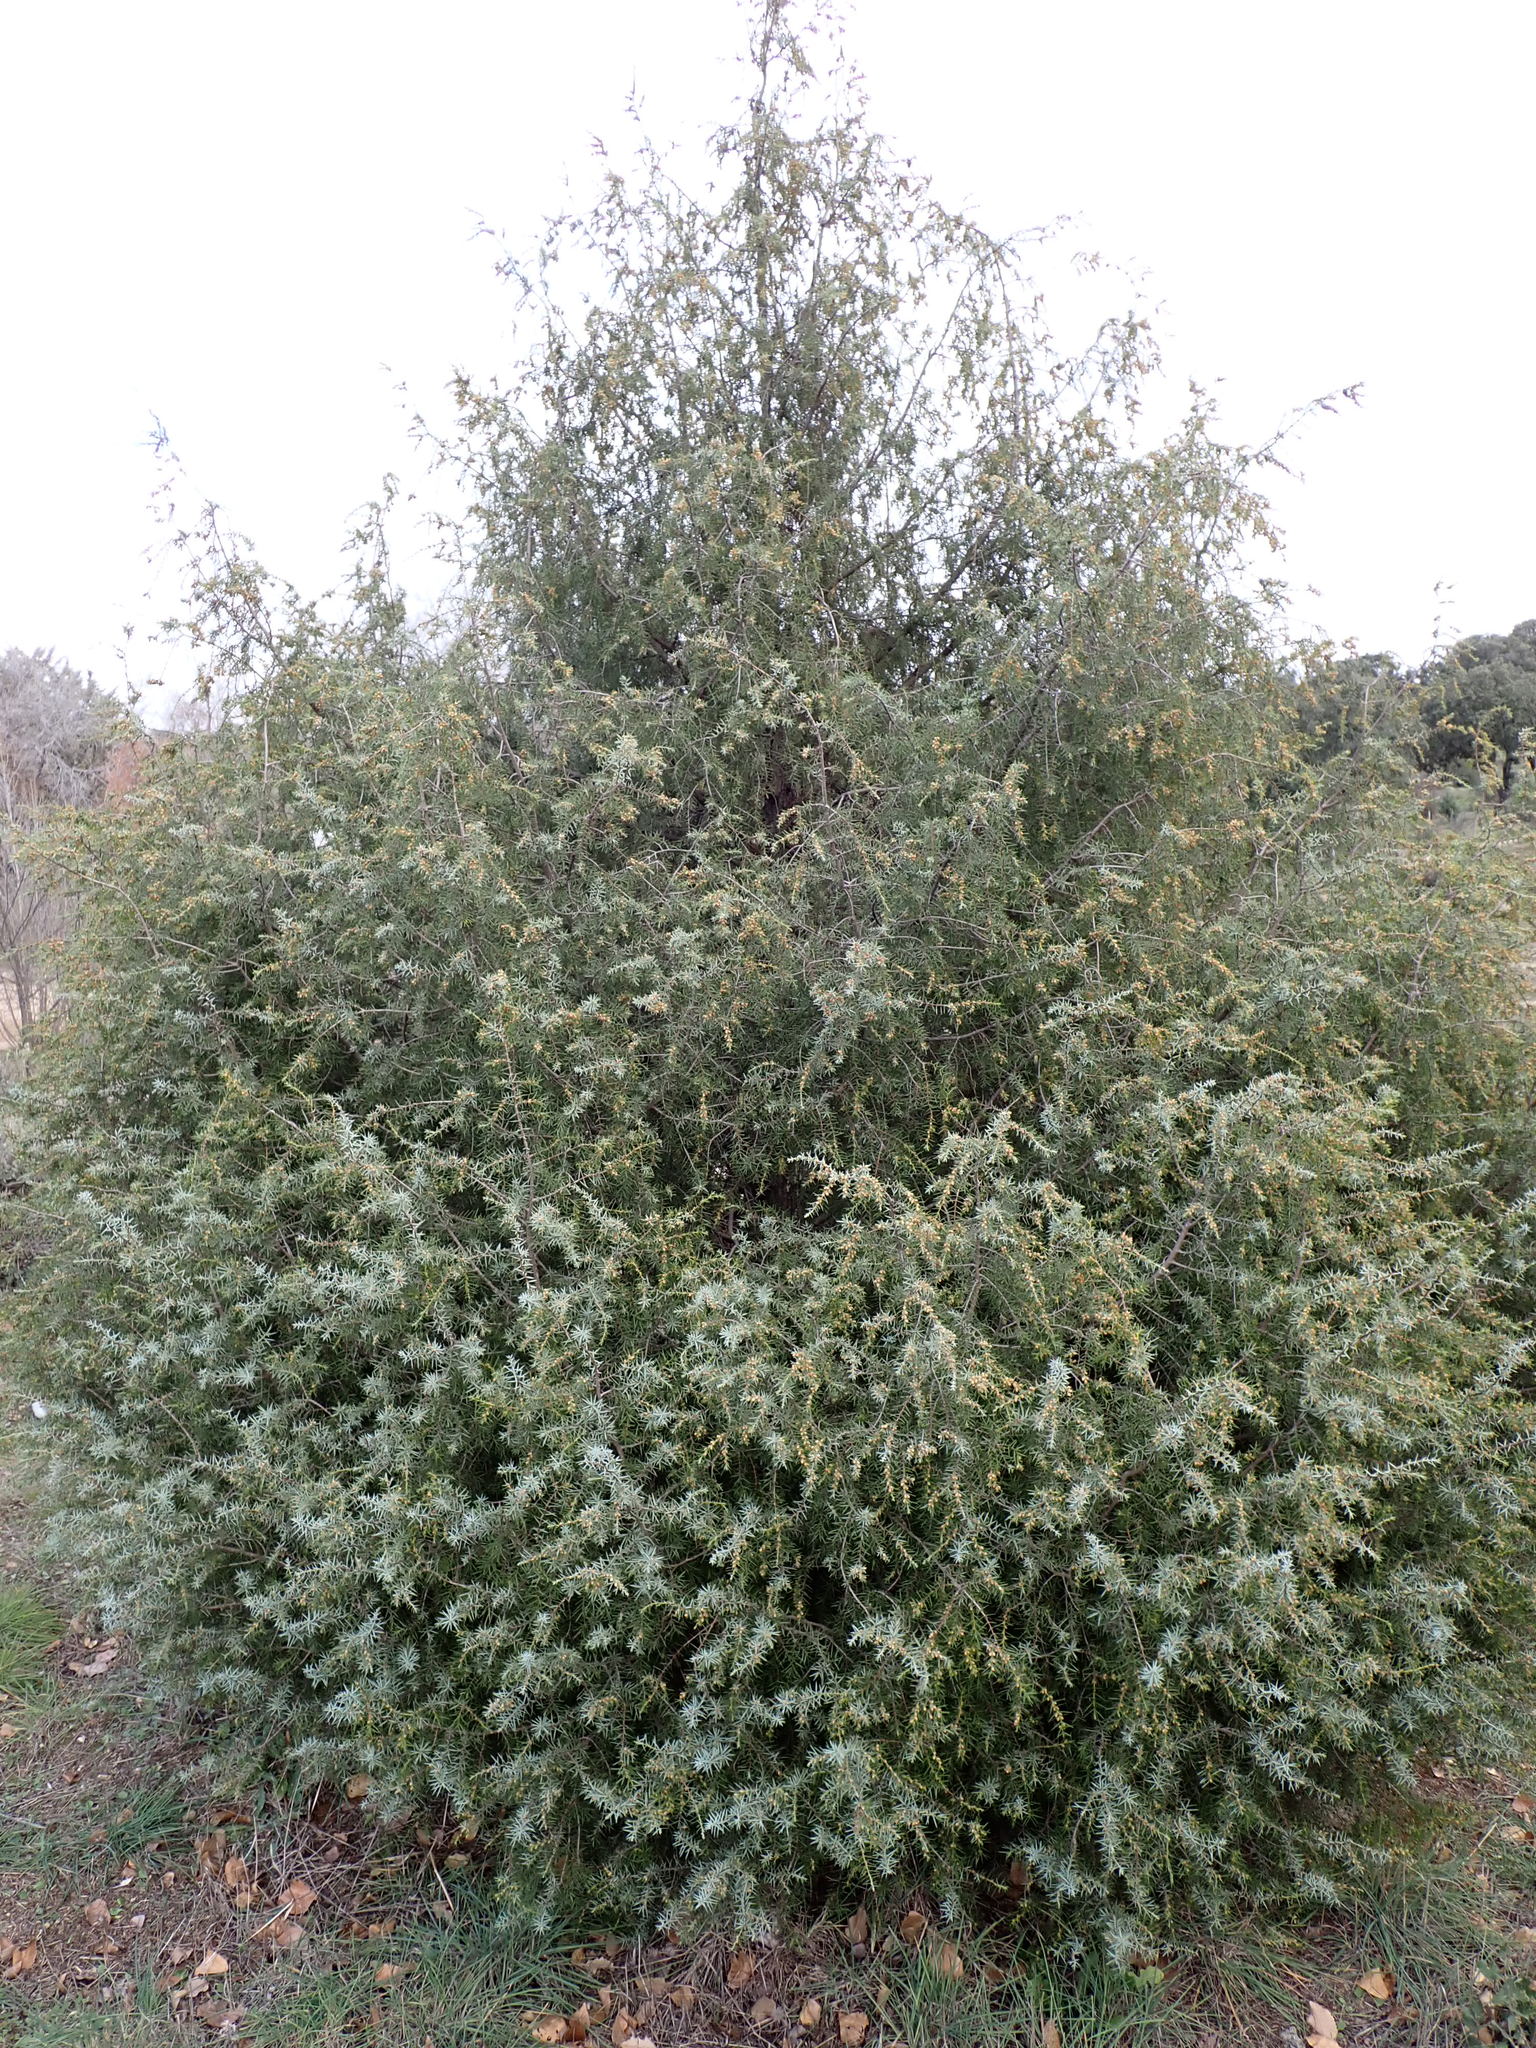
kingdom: Plantae
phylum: Tracheophyta
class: Pinopsida
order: Pinales
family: Cupressaceae
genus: Juniperus
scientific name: Juniperus oxycedrus
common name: Prickly juniper
